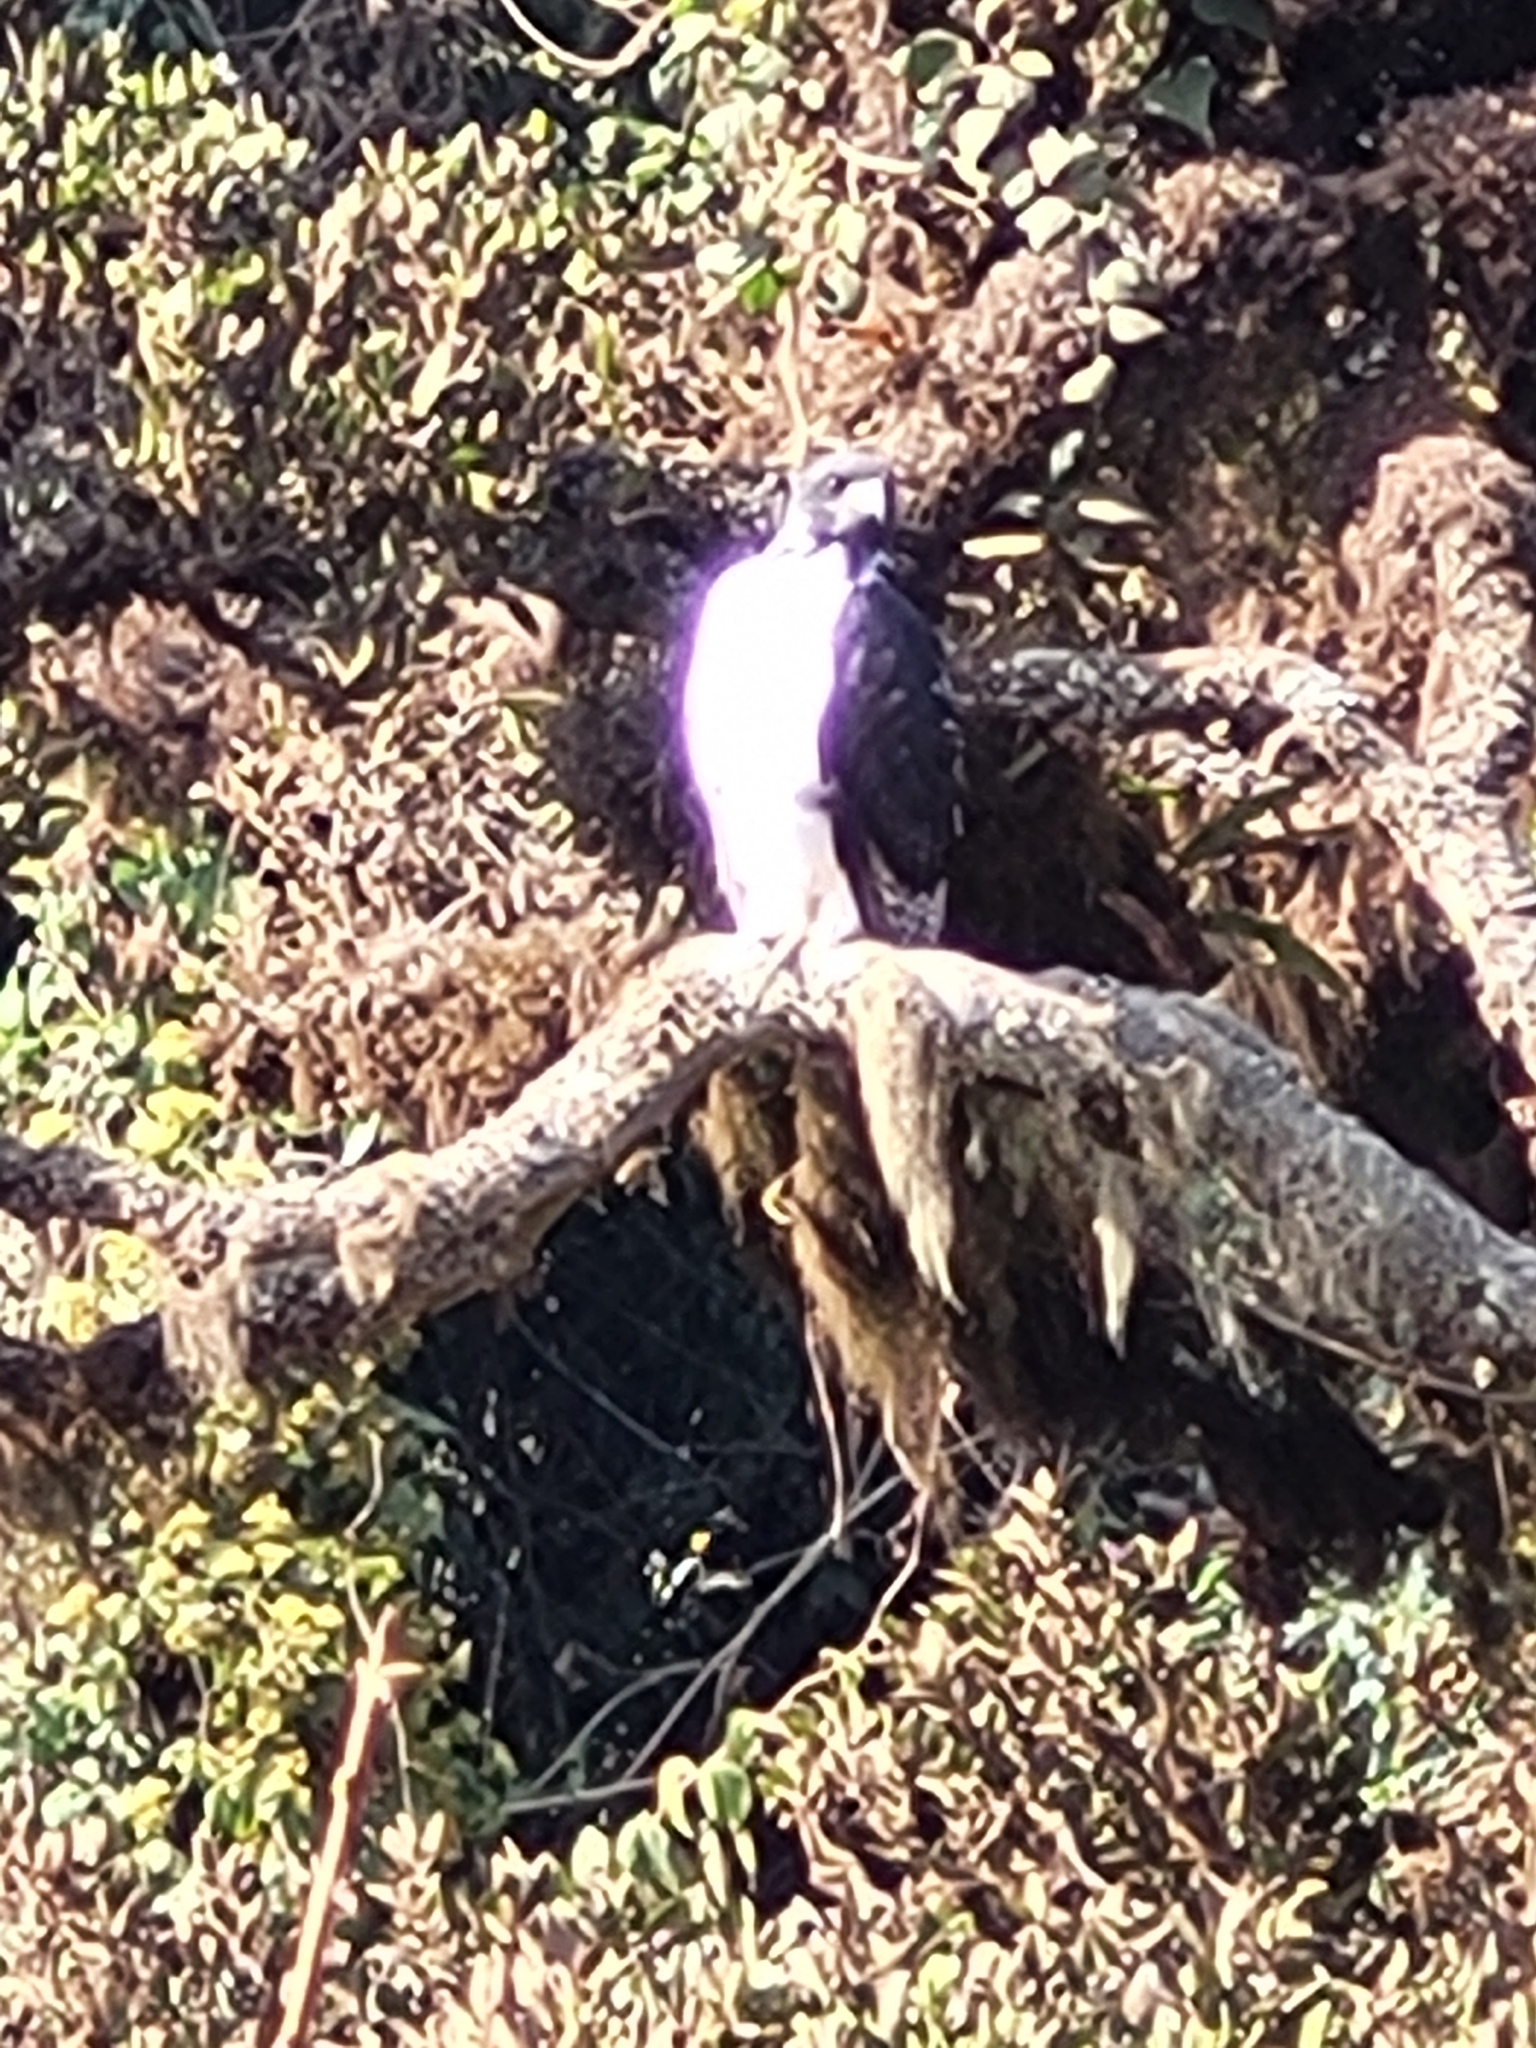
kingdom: Animalia
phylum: Chordata
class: Aves
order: Accipitriformes
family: Accipitridae
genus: Buteo
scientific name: Buteo augur
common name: Augur buzzard
